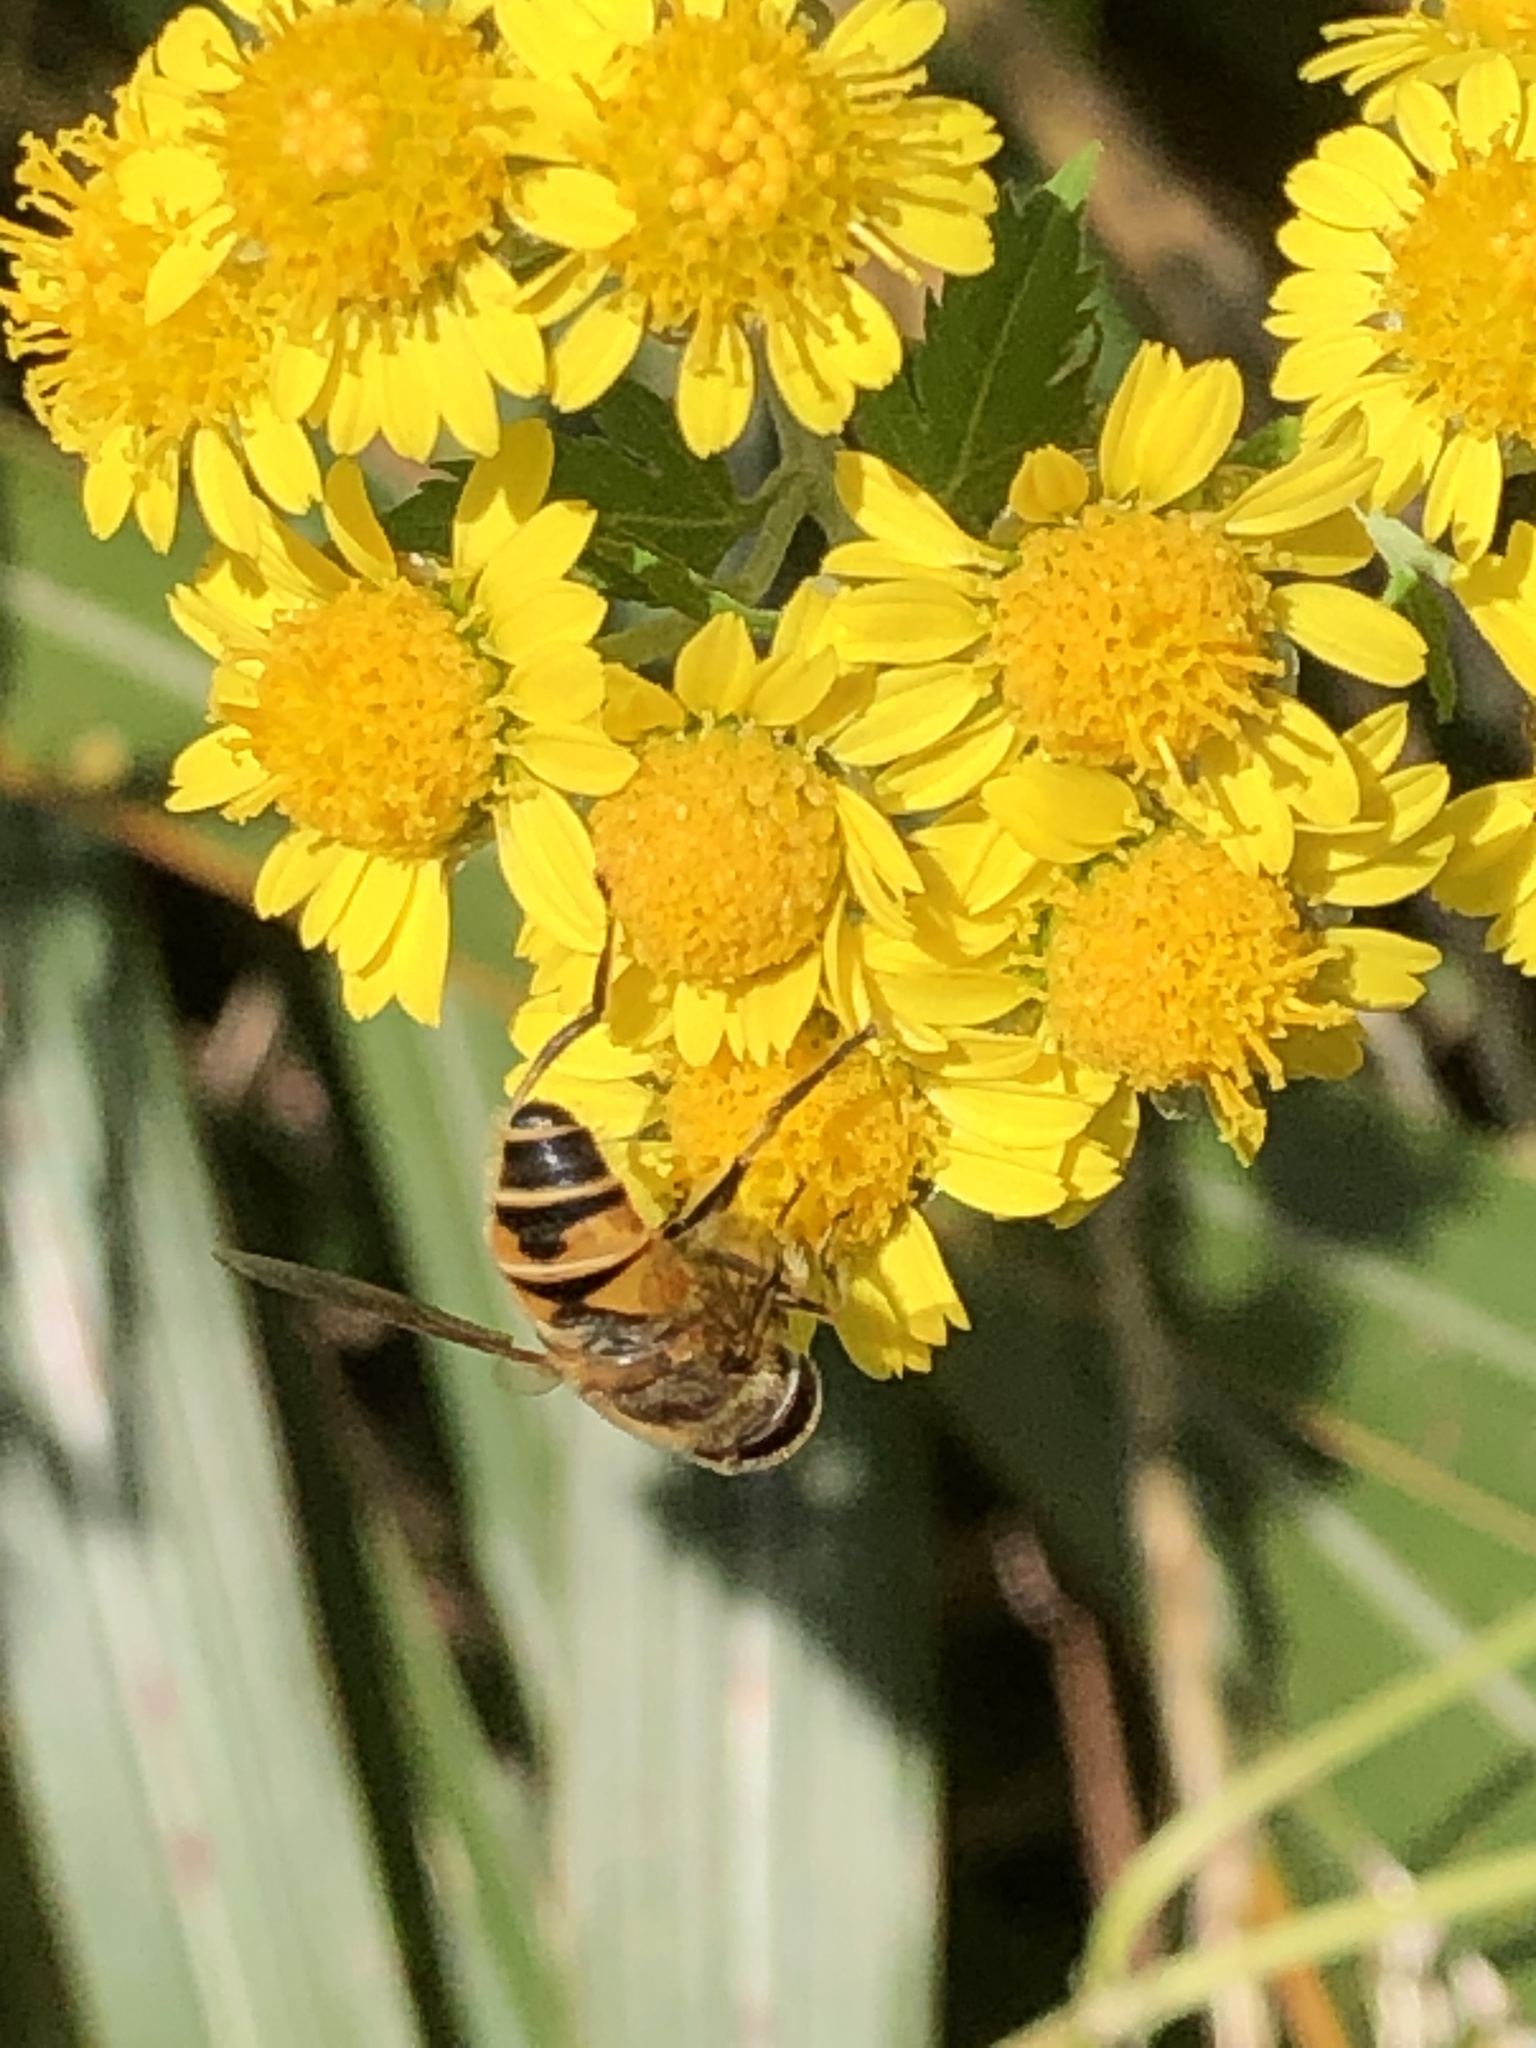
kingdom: Animalia
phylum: Arthropoda
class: Insecta
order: Diptera
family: Syrphidae
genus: Eristalis
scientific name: Eristalis cerealis
